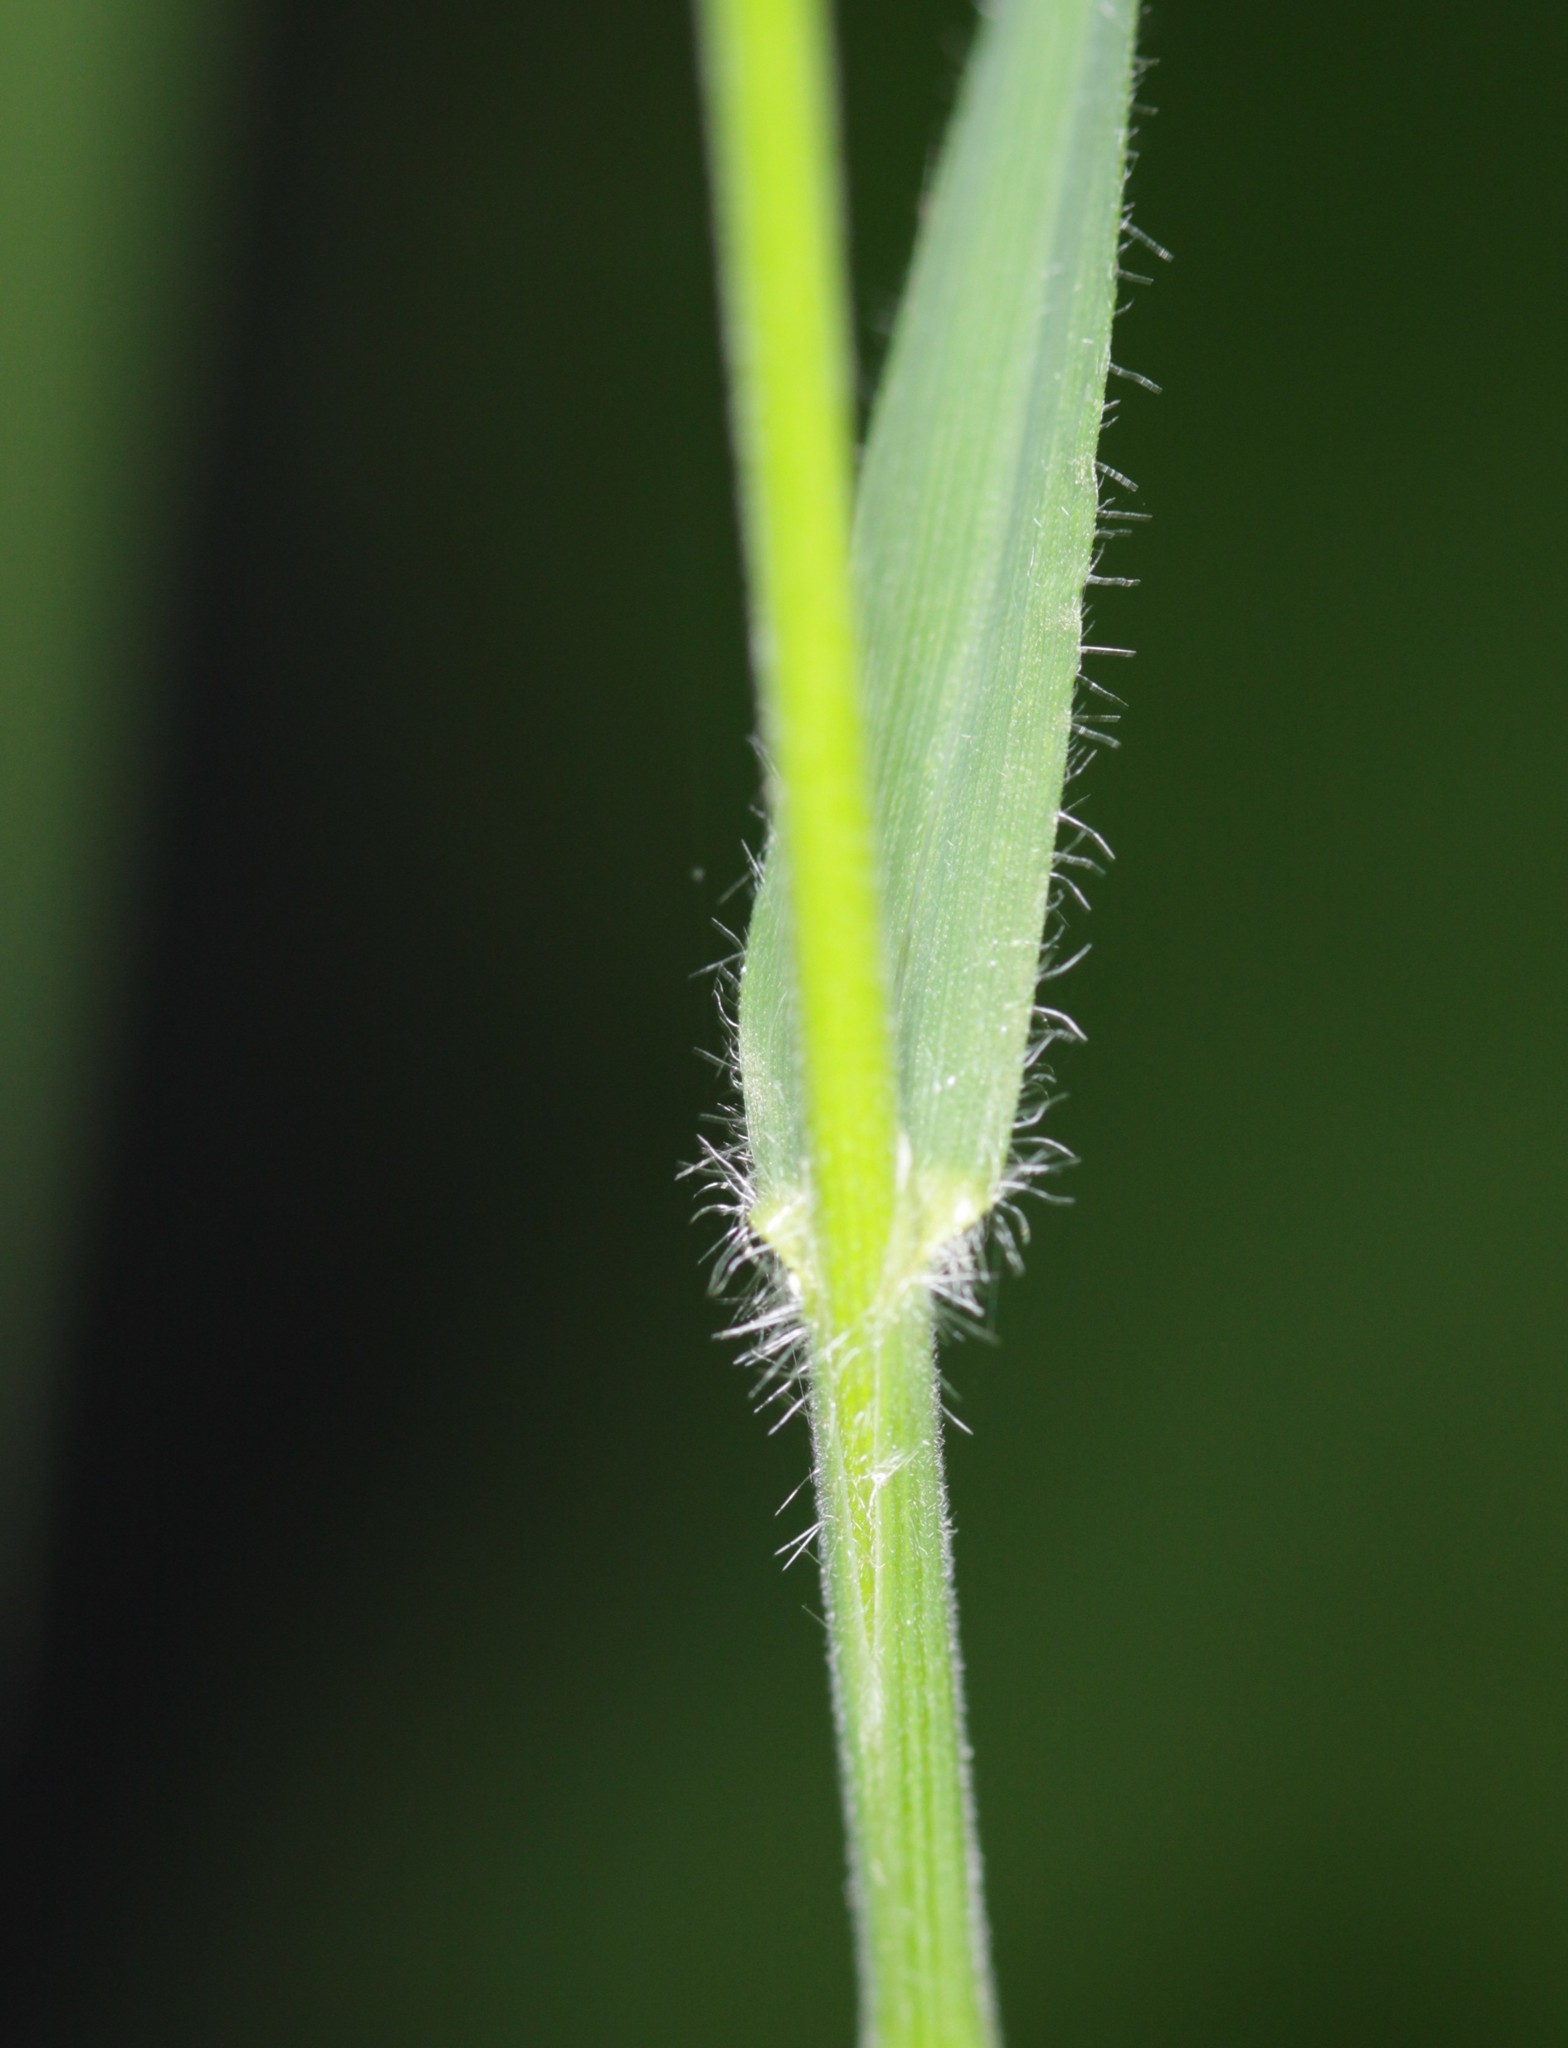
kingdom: Plantae
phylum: Tracheophyta
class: Liliopsida
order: Poales
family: Poaceae
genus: Bromus
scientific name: Bromus benekenii
